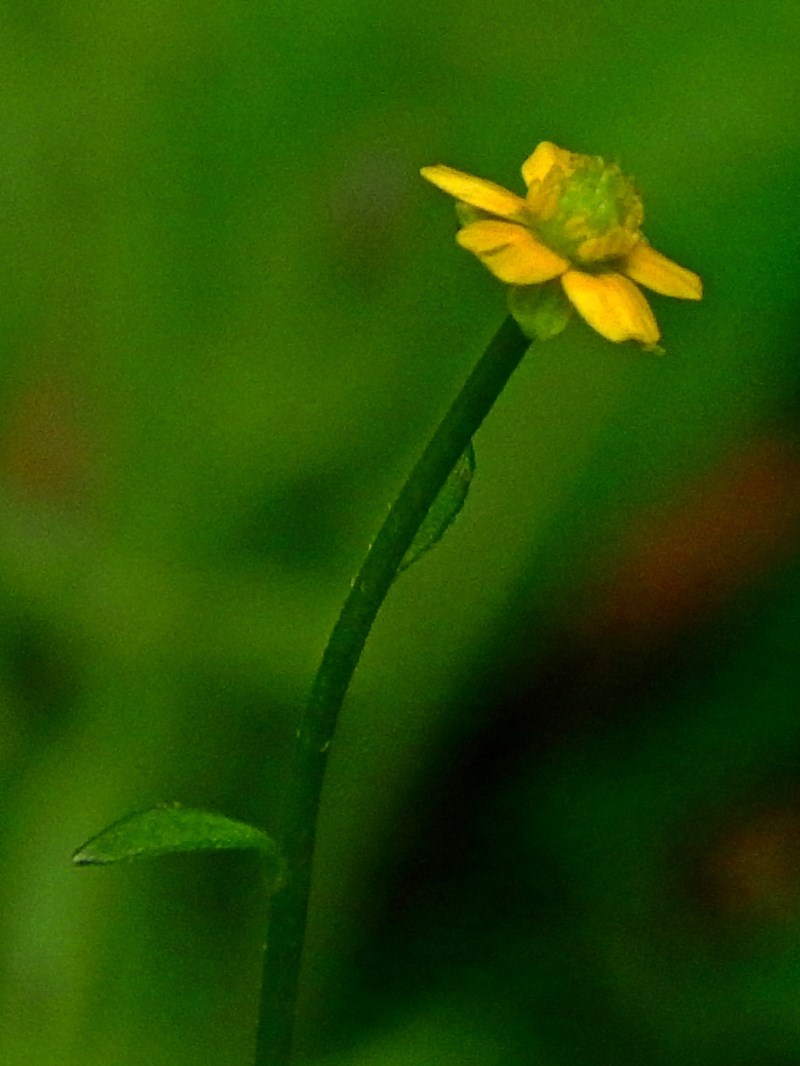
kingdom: Plantae
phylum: Tracheophyta
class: Magnoliopsida
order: Ranunculales
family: Ranunculaceae
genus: Ranunculus
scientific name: Ranunculus plebeius
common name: Common australian buttercup
